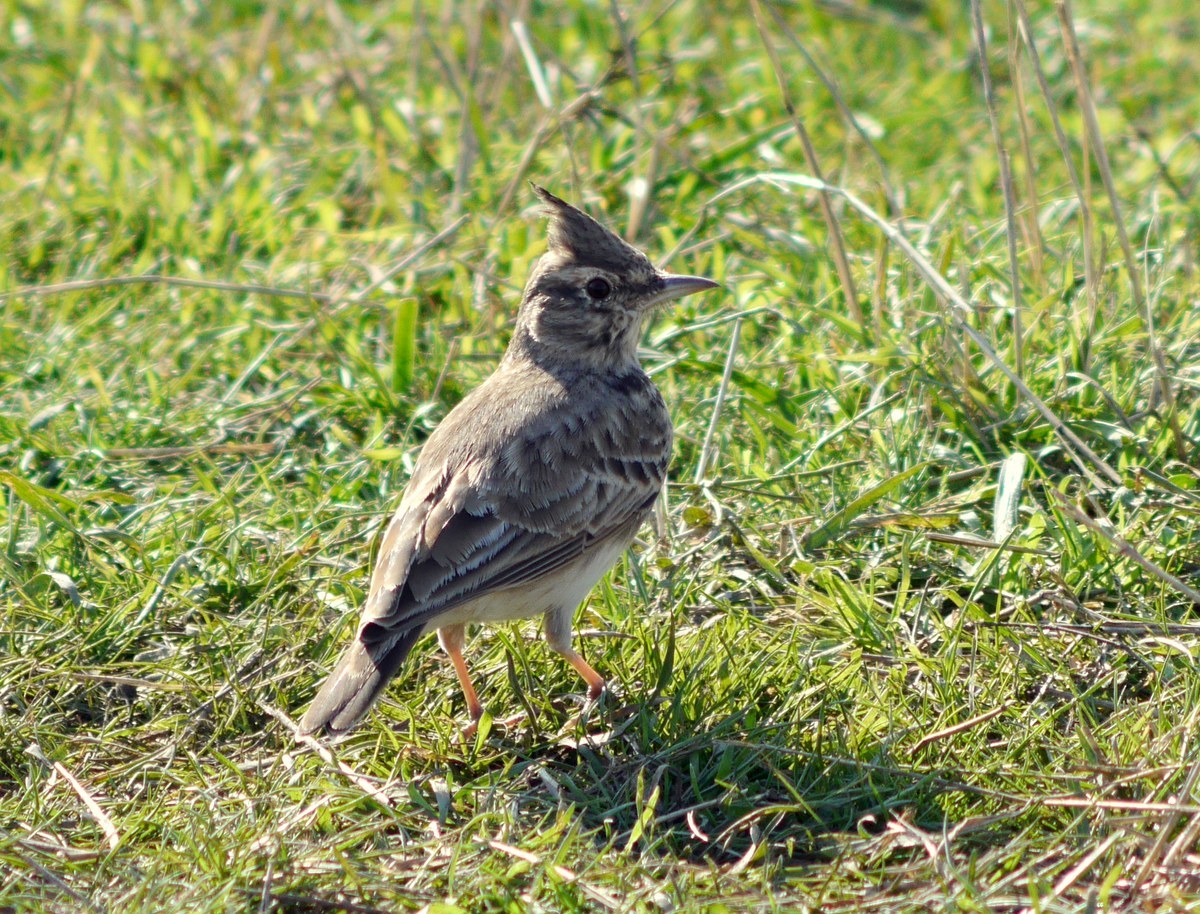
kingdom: Animalia
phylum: Chordata
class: Aves
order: Passeriformes
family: Alaudidae
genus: Galerida
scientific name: Galerida cristata
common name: Crested lark
